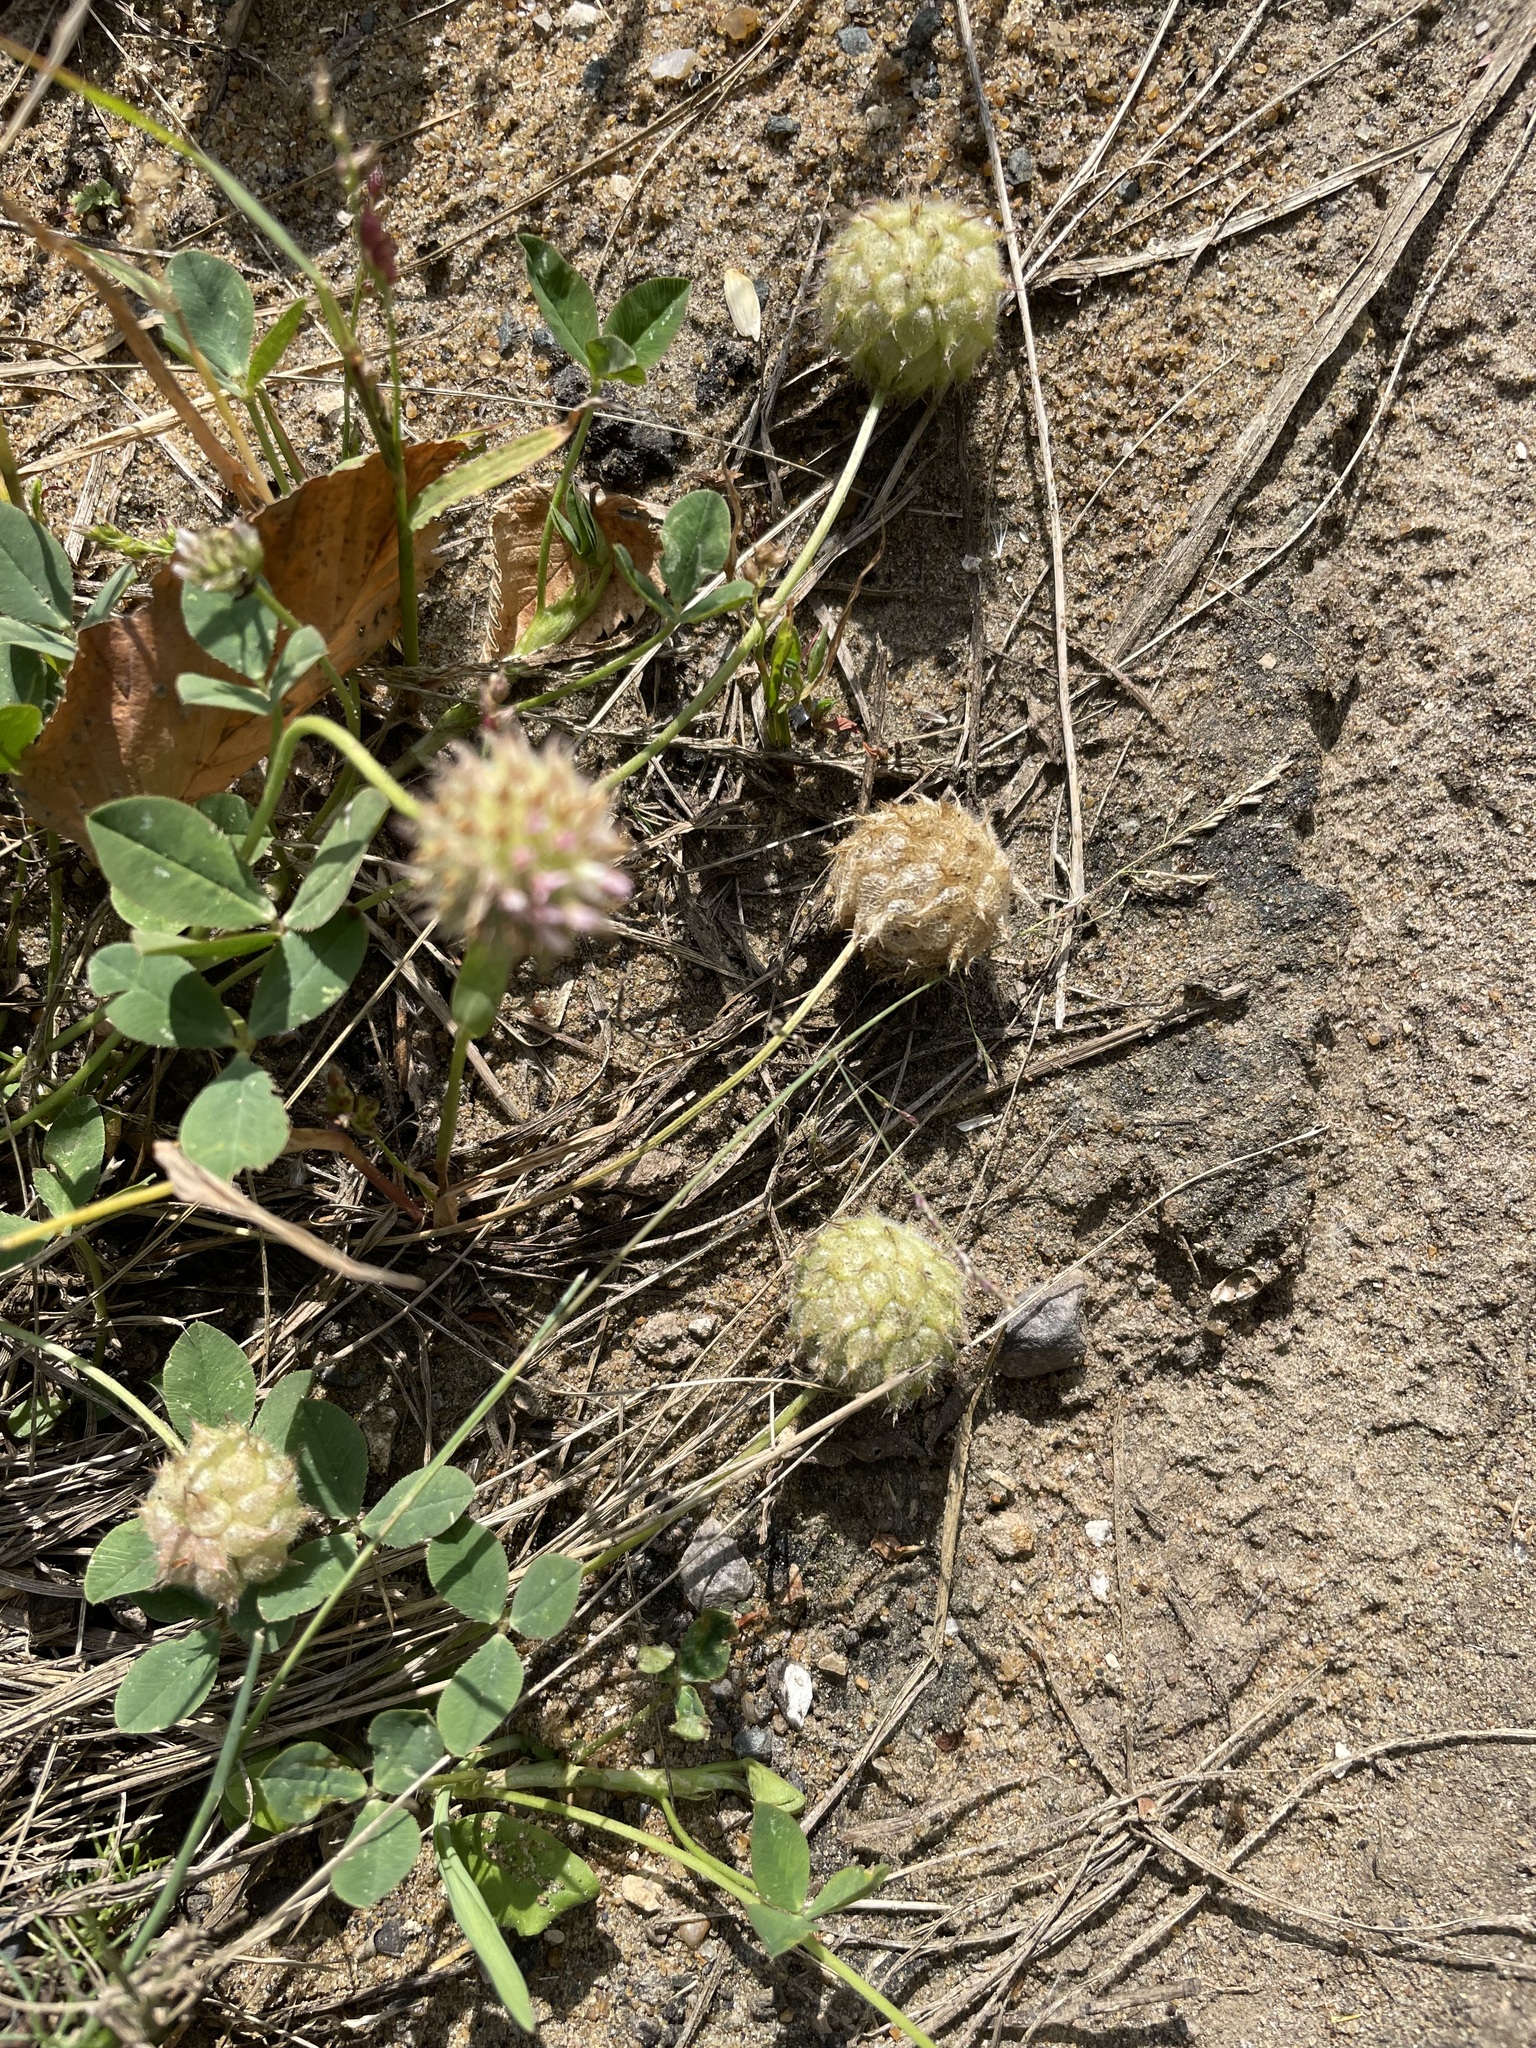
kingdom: Plantae
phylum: Tracheophyta
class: Magnoliopsida
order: Fabales
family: Fabaceae
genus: Trifolium
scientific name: Trifolium fragiferum
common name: Strawberry clover
